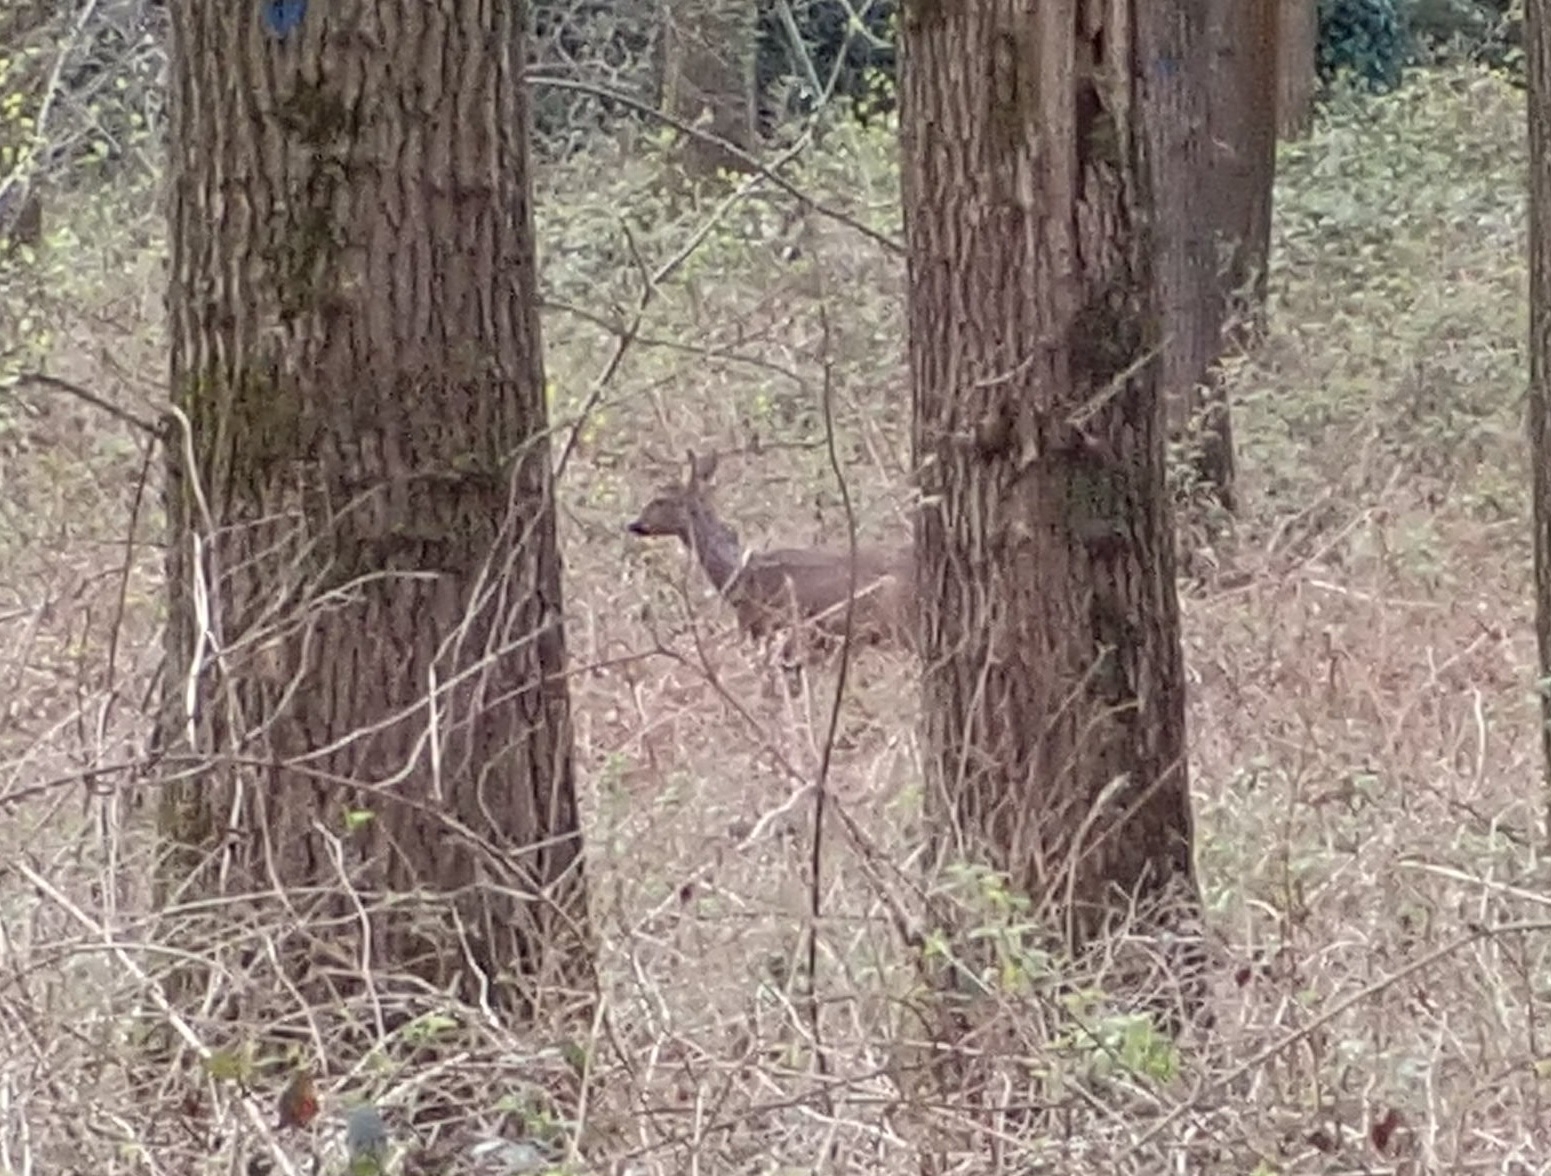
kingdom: Animalia
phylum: Chordata
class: Mammalia
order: Artiodactyla
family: Cervidae
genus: Capreolus
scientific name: Capreolus capreolus
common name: Western roe deer
